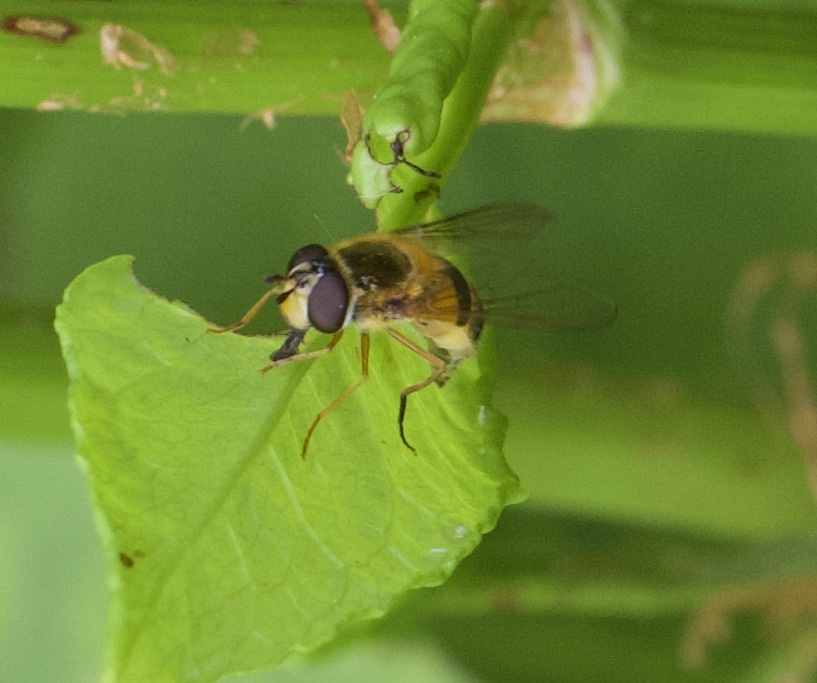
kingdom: Animalia
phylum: Arthropoda
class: Insecta
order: Diptera
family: Syrphidae
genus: Epistrophe
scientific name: Epistrophe eligans
